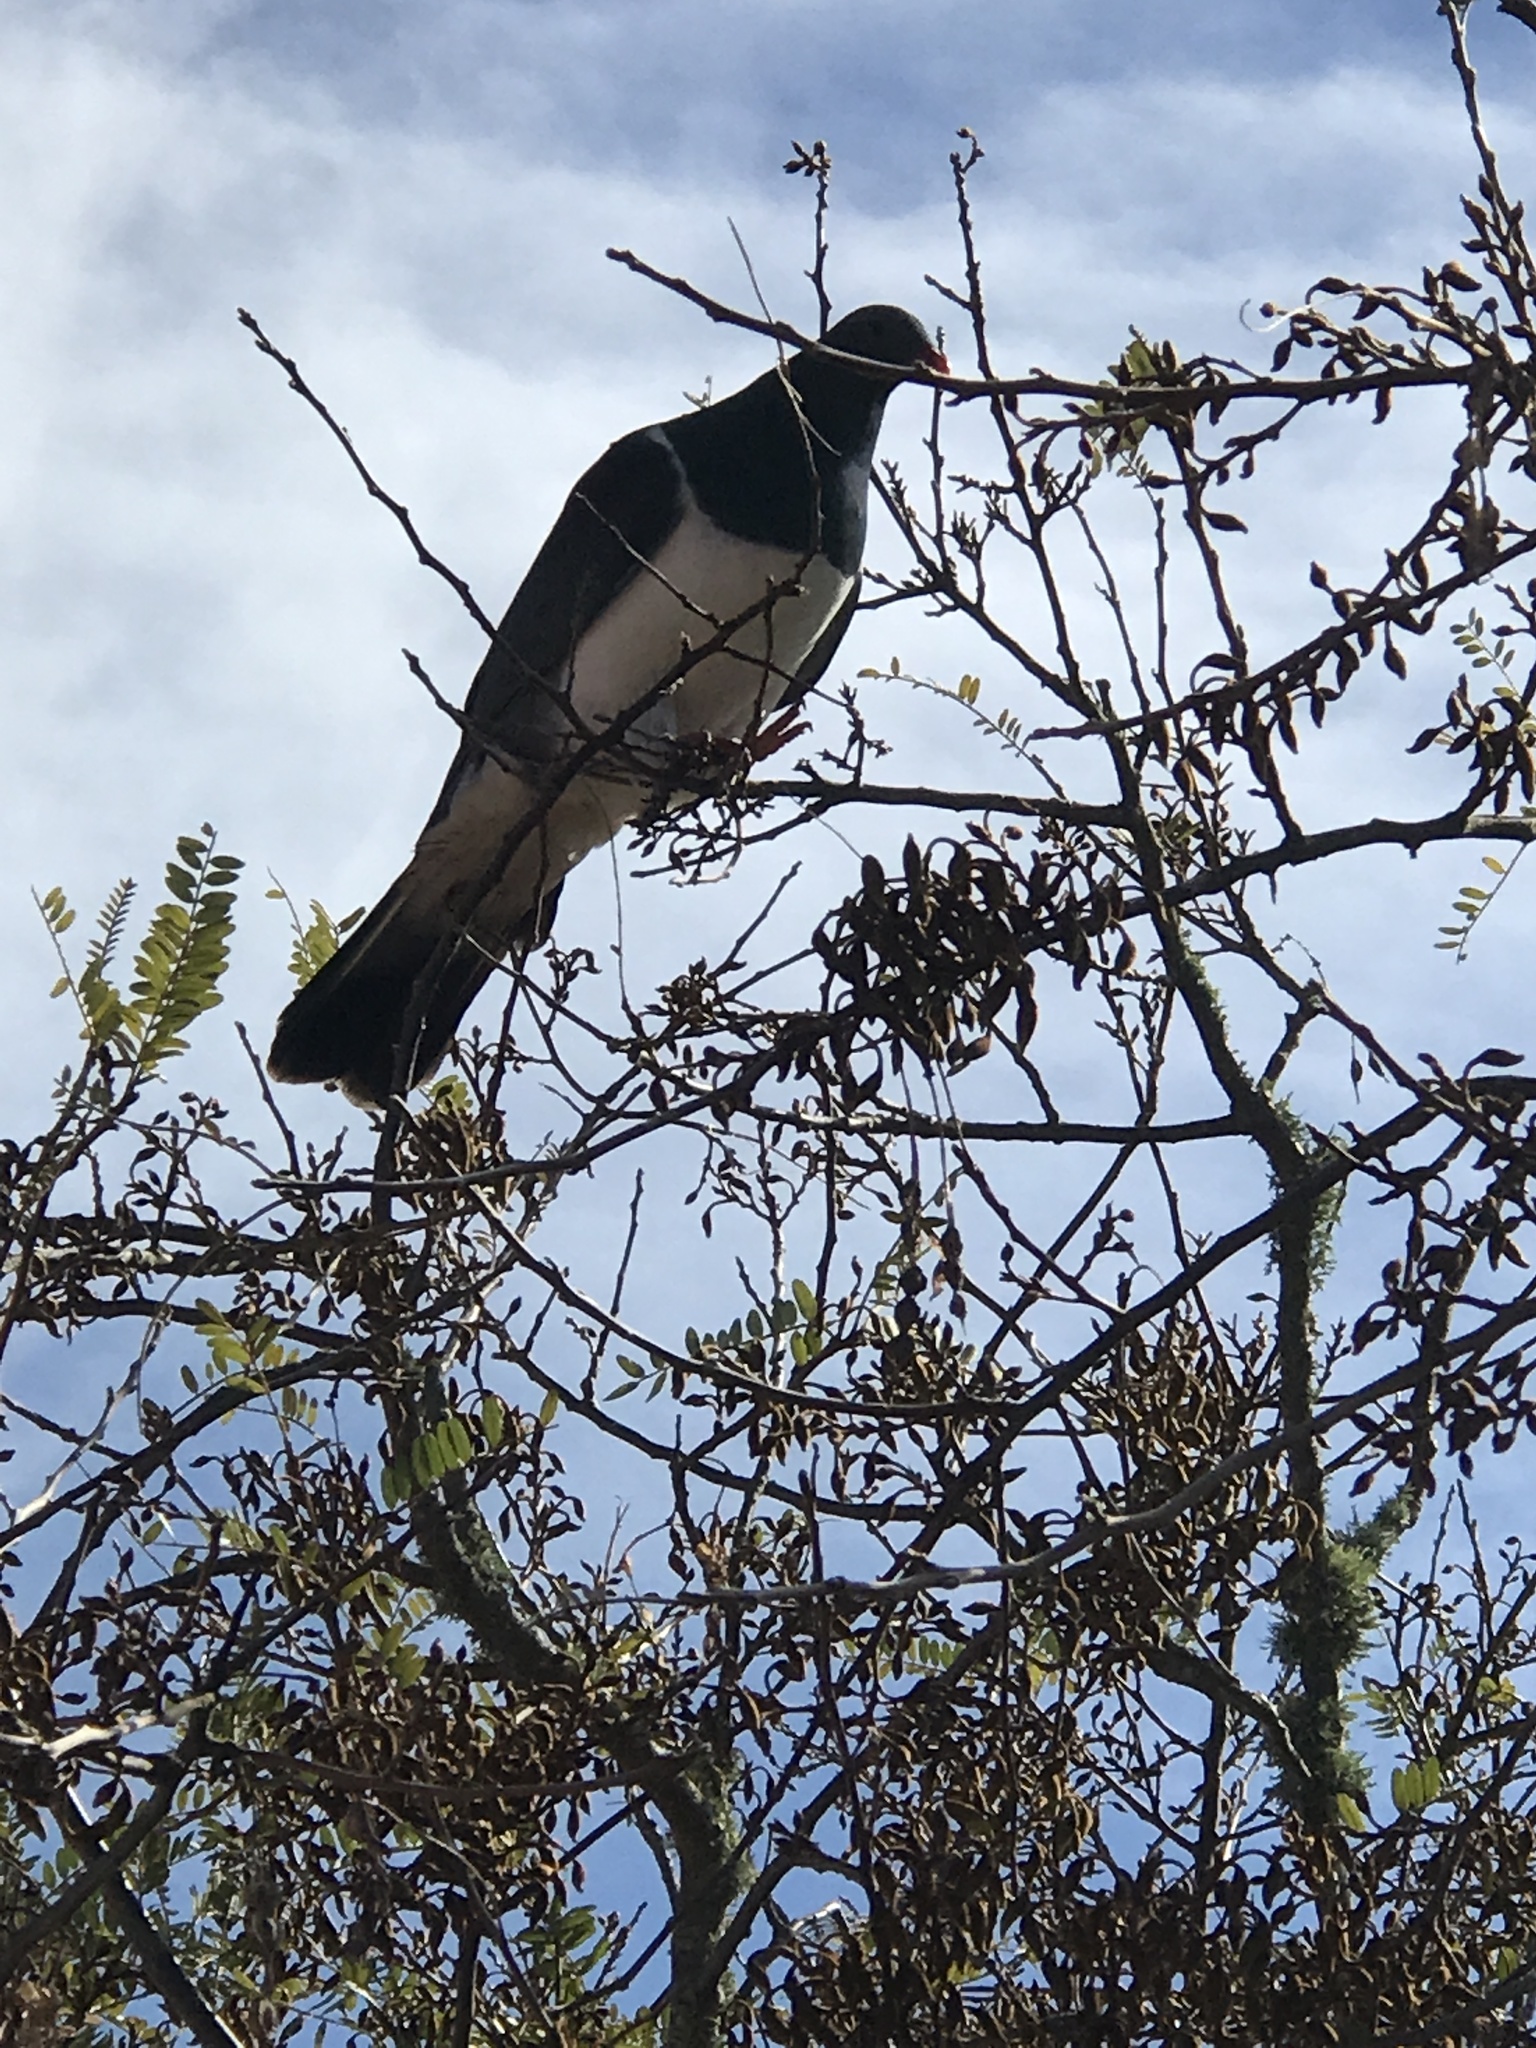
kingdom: Animalia
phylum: Chordata
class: Aves
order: Columbiformes
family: Columbidae
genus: Hemiphaga
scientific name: Hemiphaga novaeseelandiae
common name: New zealand pigeon
